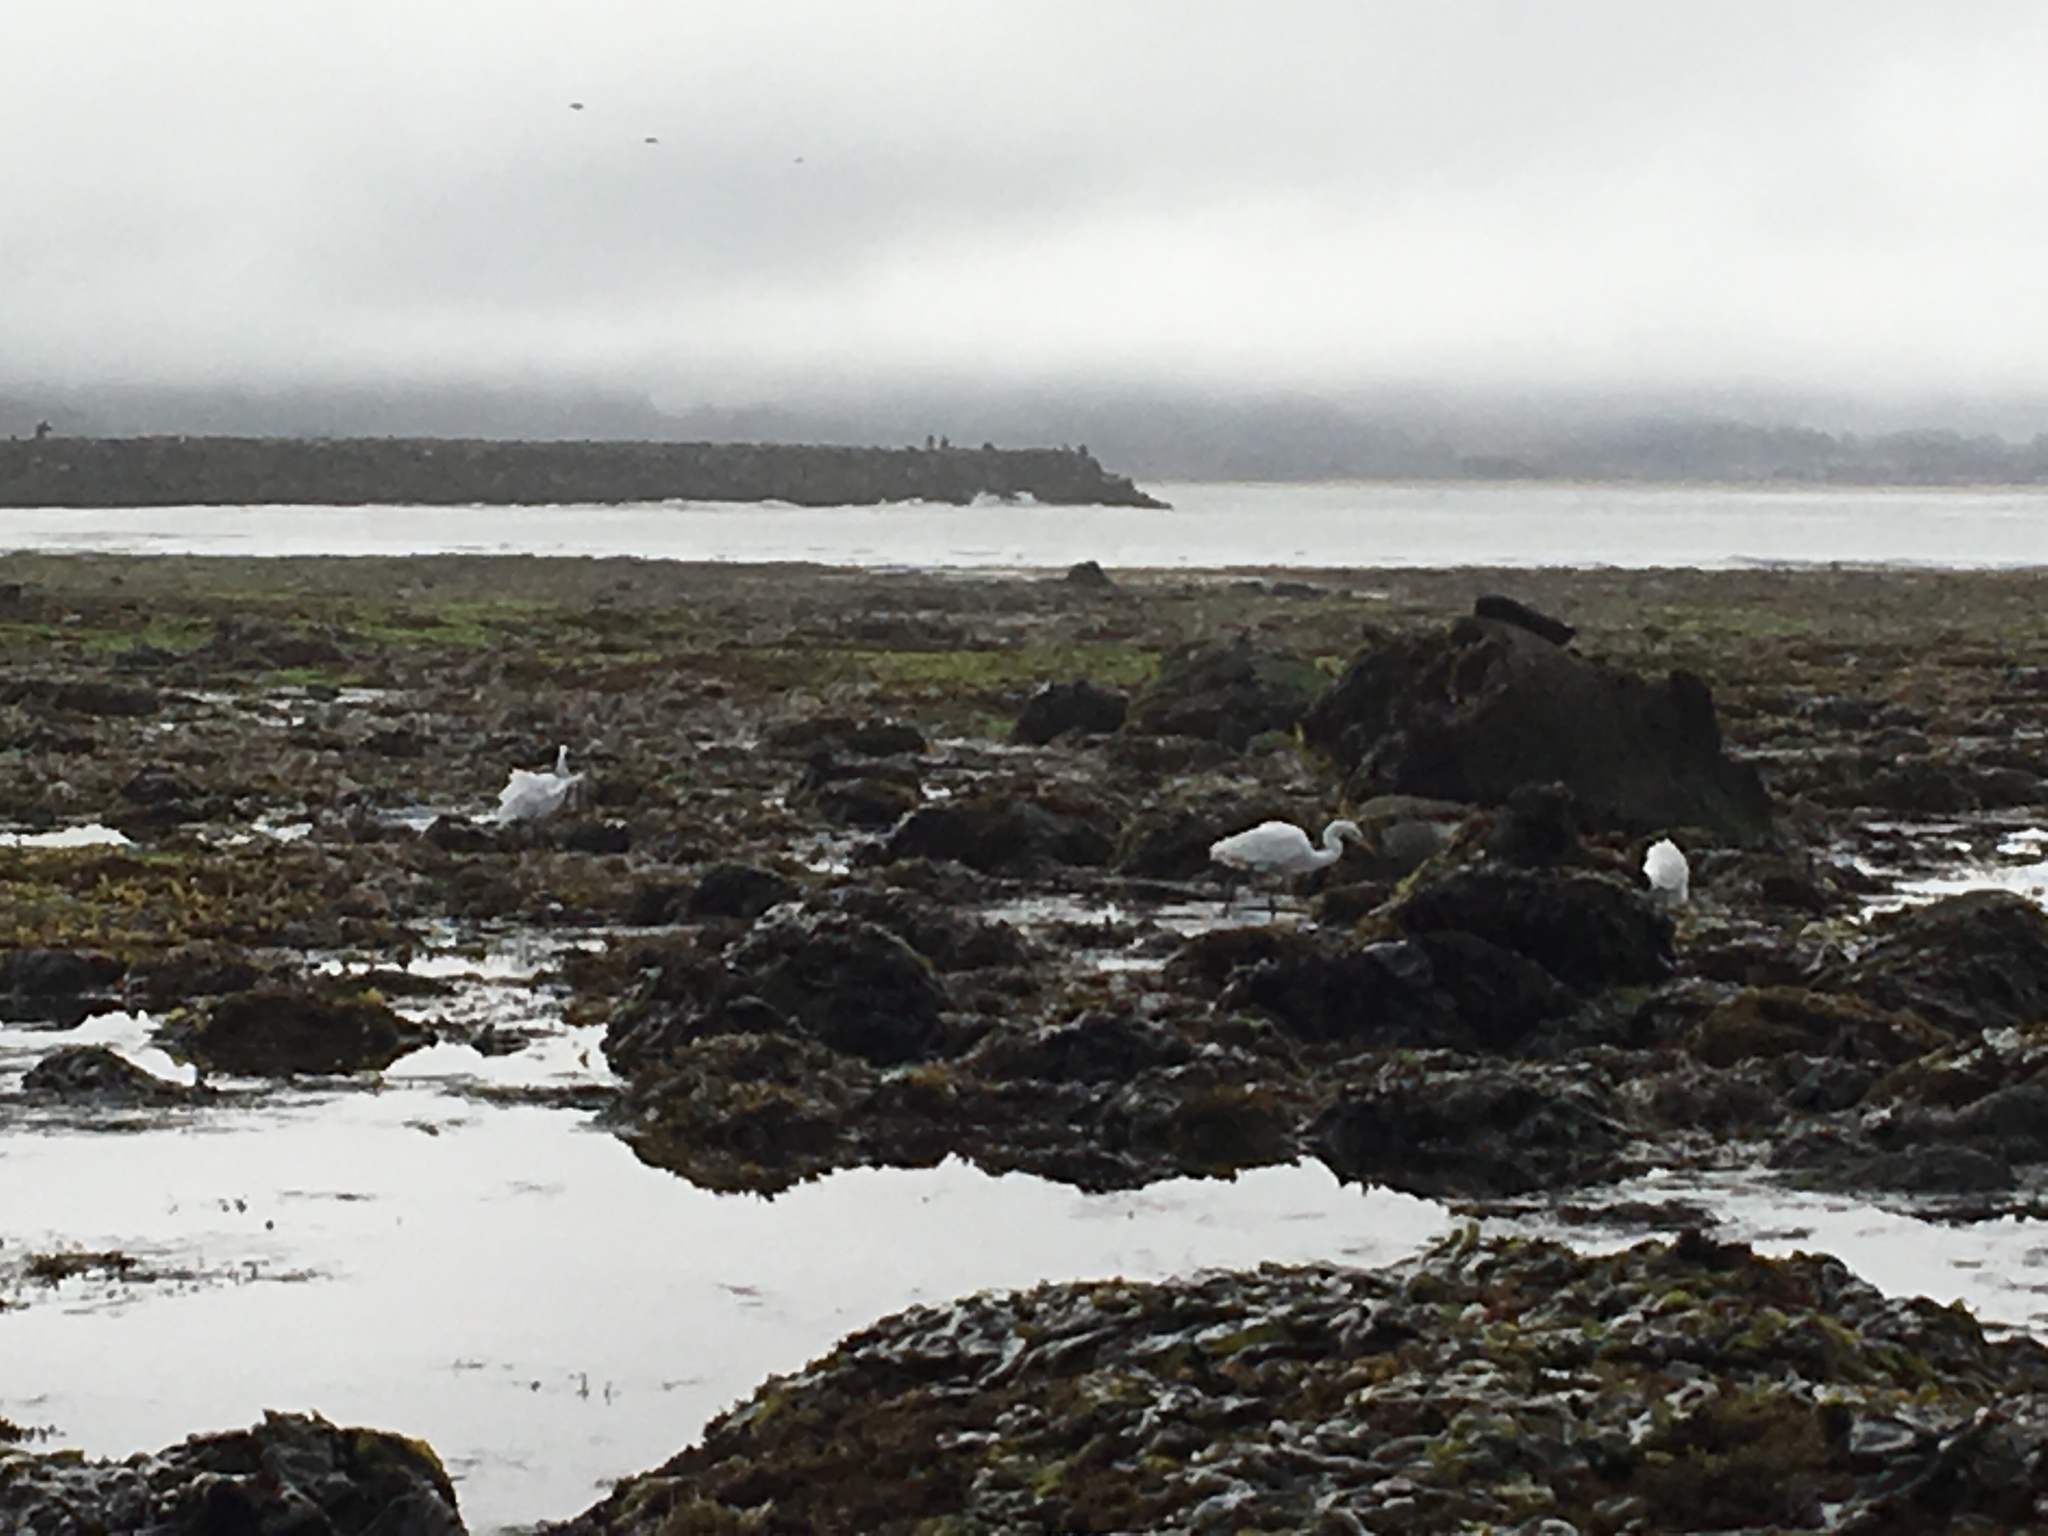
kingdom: Animalia
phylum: Chordata
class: Aves
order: Pelecaniformes
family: Ardeidae
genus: Ardea
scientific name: Ardea alba
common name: Great egret
